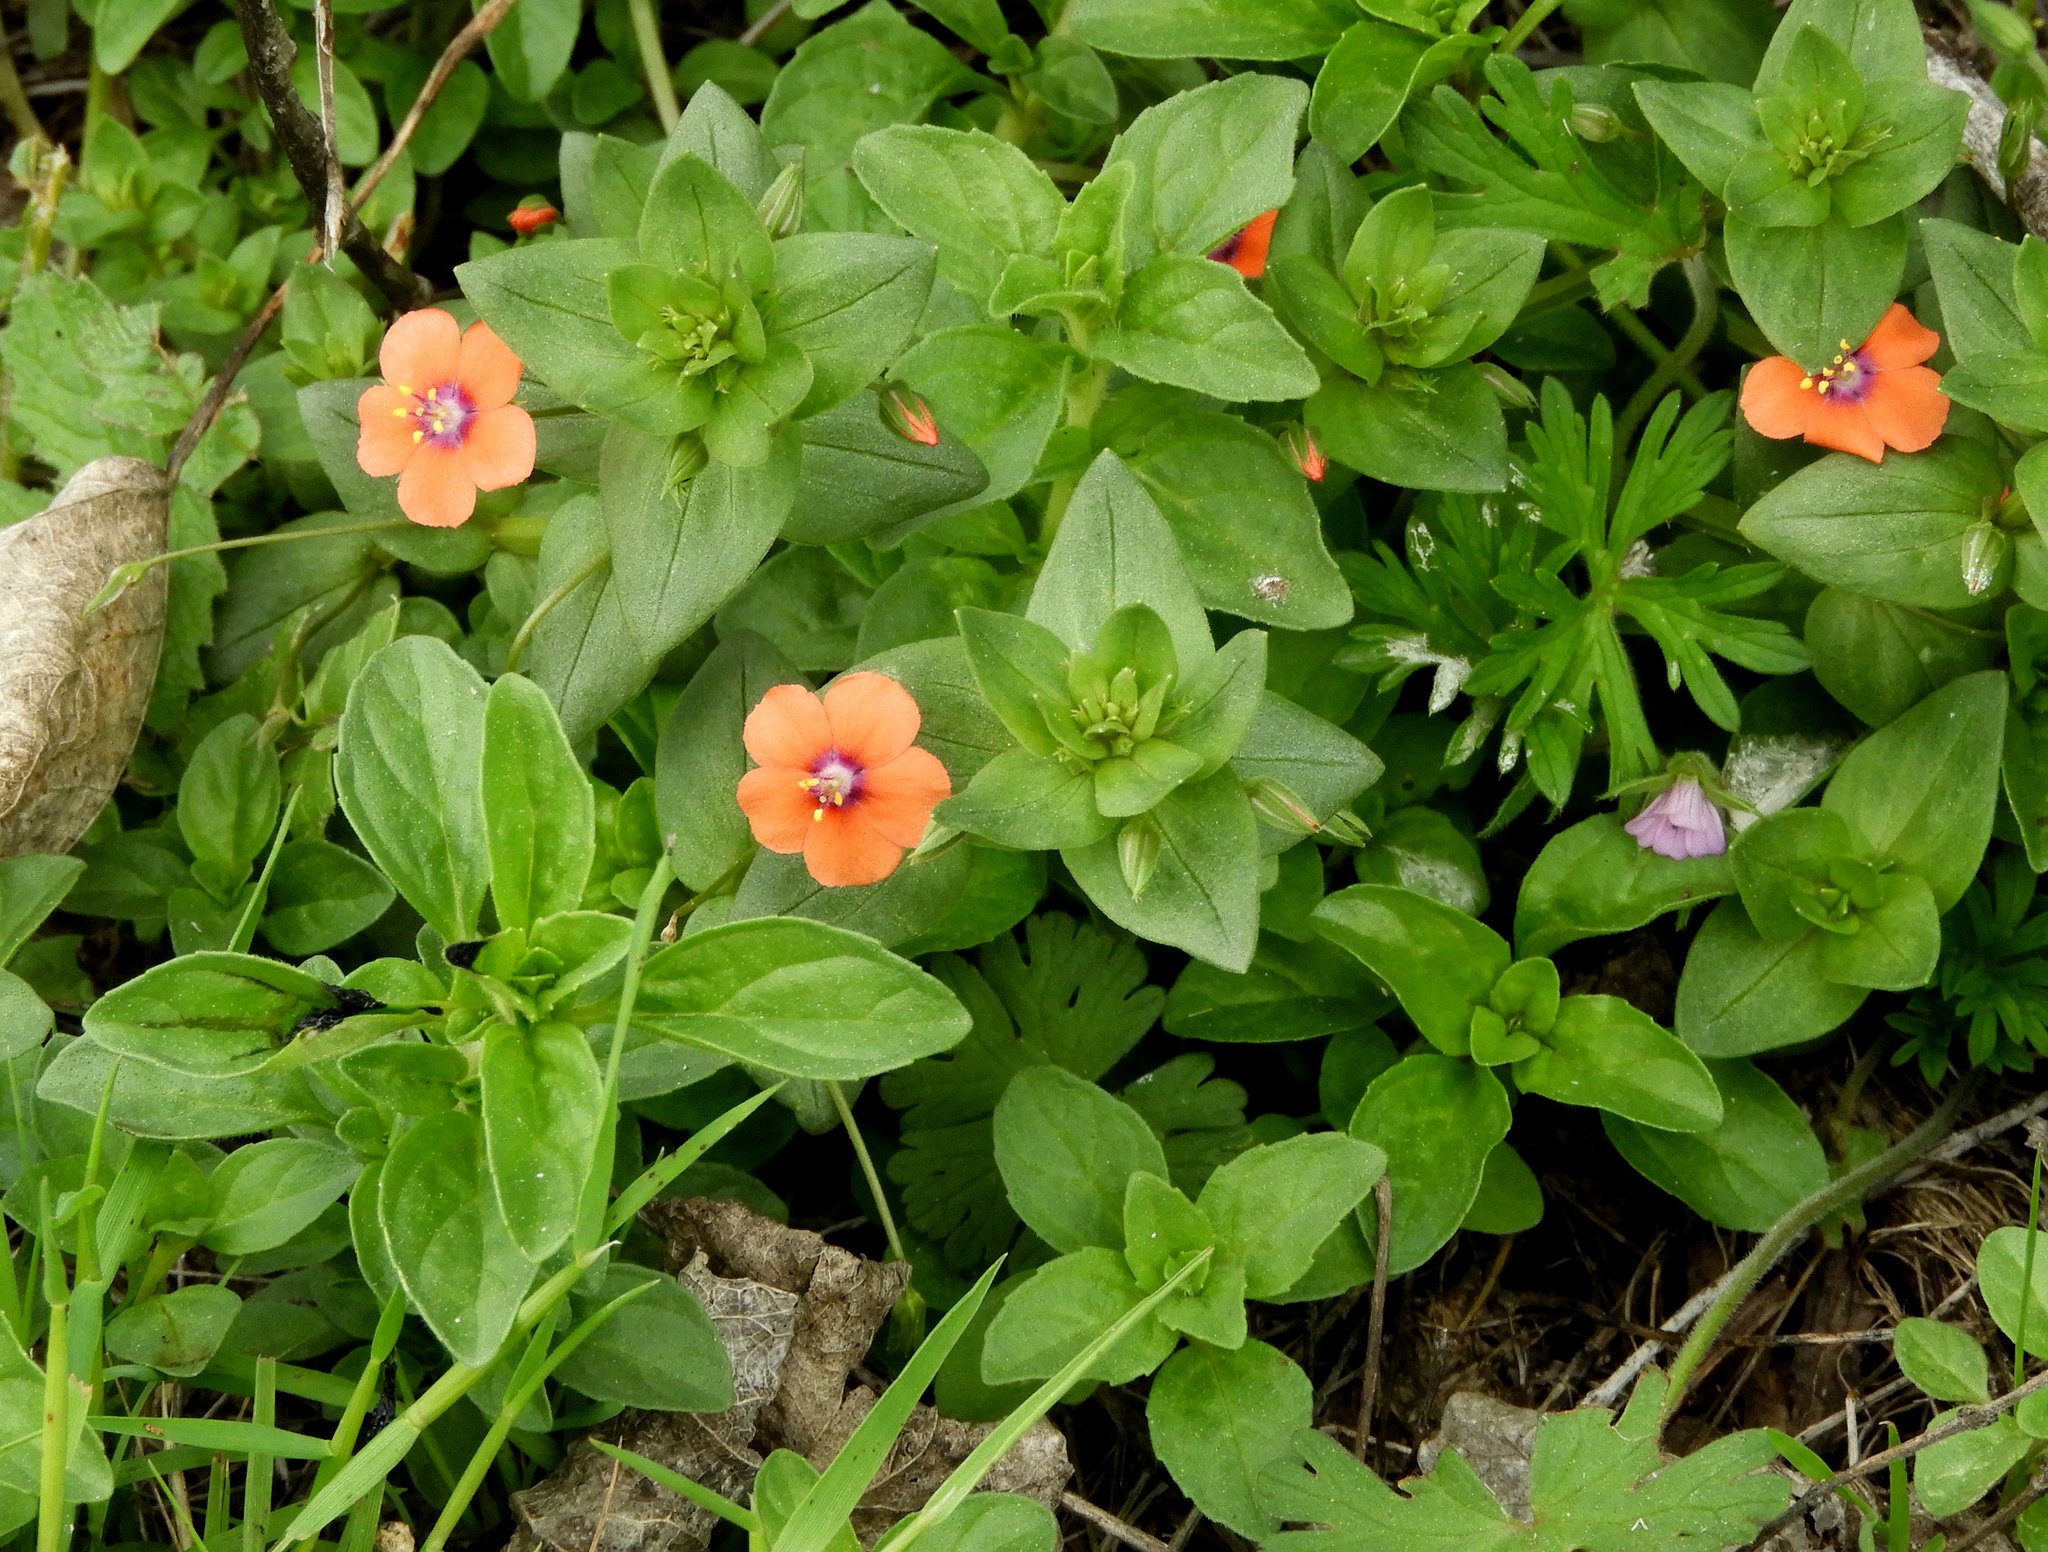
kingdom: Plantae
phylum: Tracheophyta
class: Magnoliopsida
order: Ericales
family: Primulaceae
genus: Lysimachia
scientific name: Lysimachia arvensis
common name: Scarlet pimpernel
